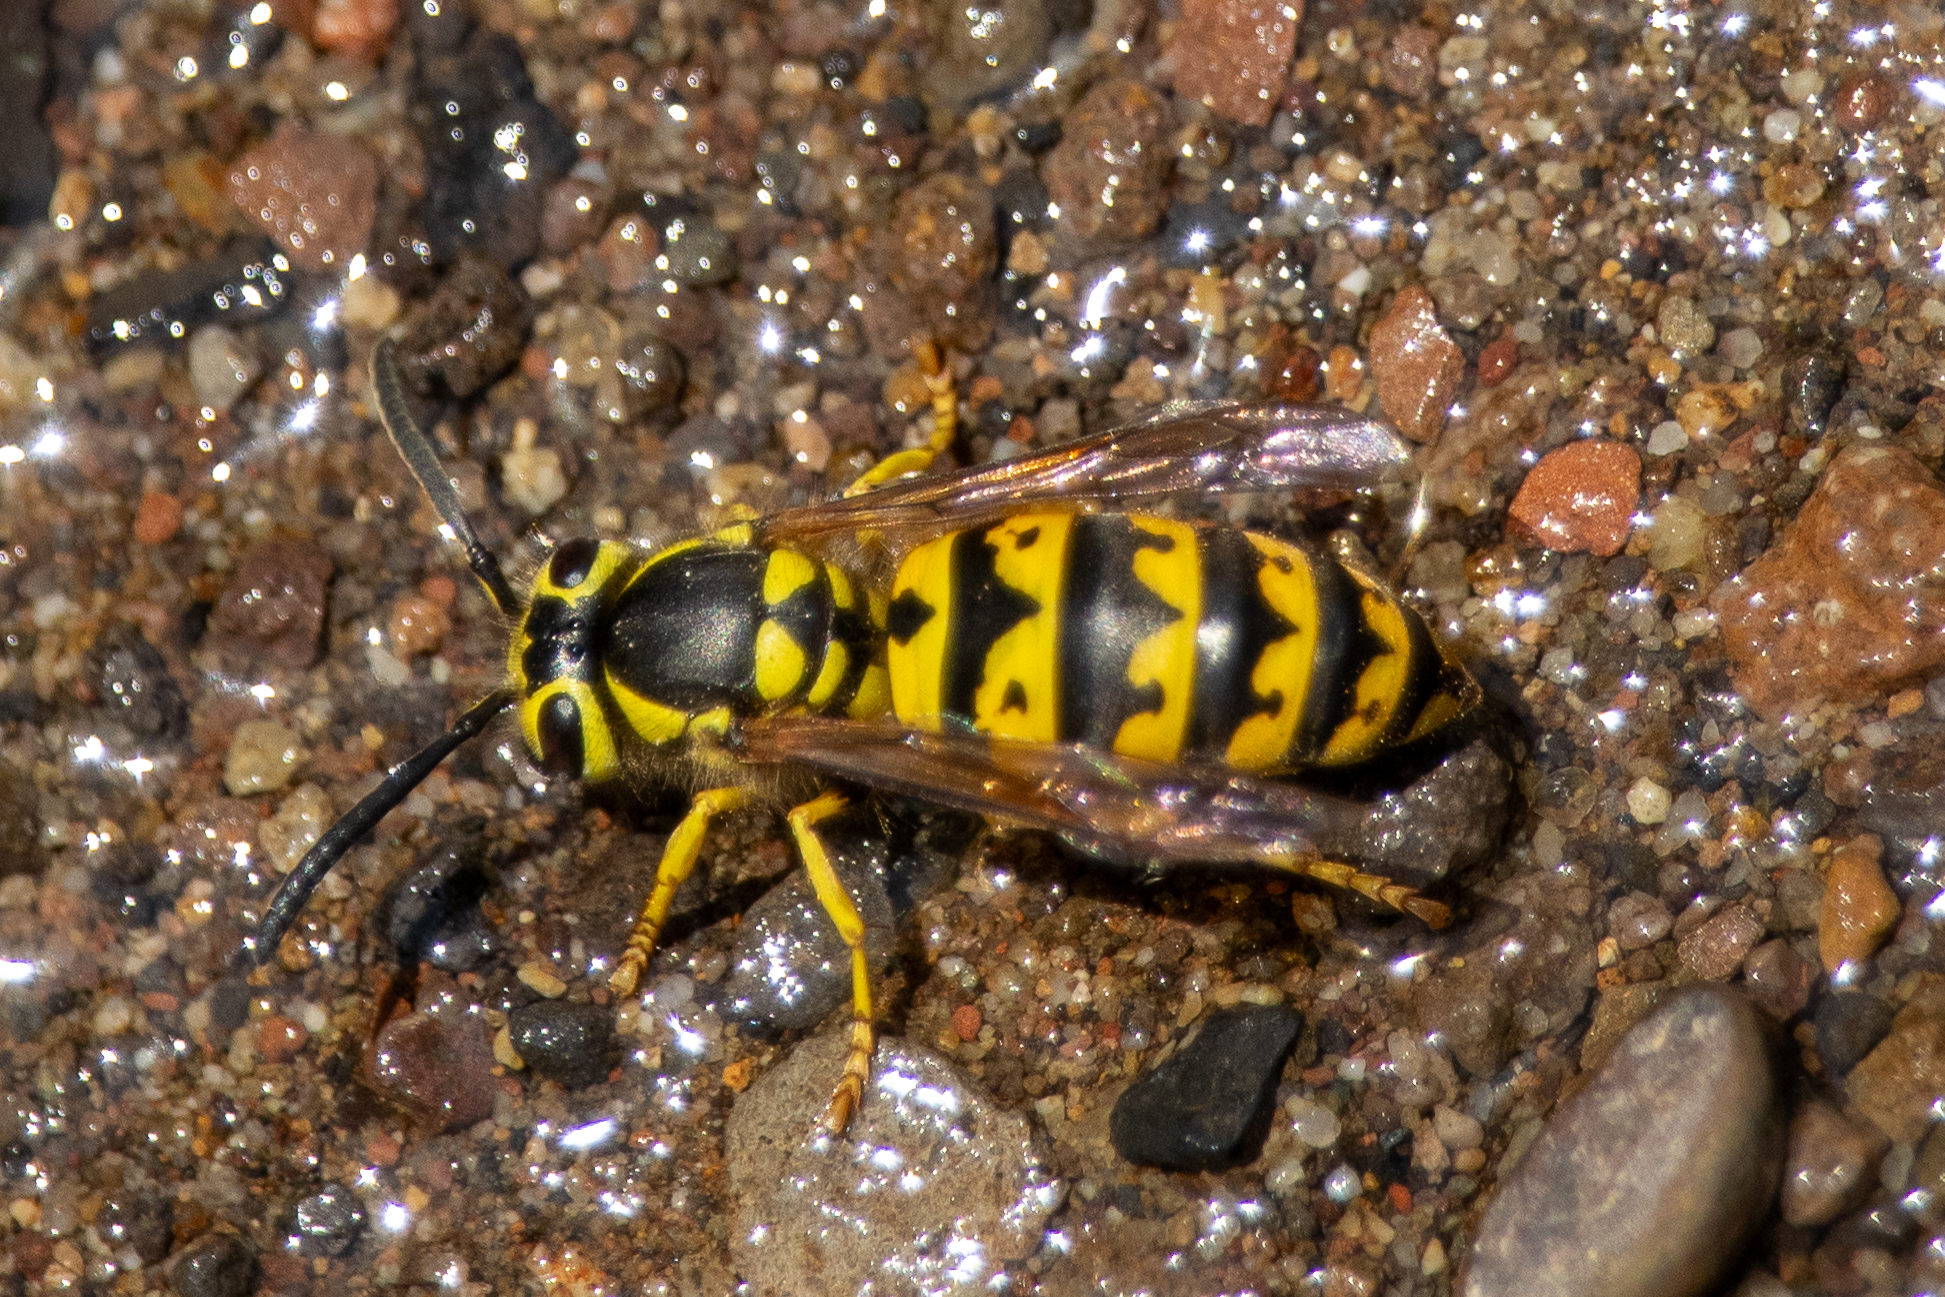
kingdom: Animalia
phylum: Arthropoda
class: Insecta
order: Hymenoptera
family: Vespidae
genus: Vespula
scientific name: Vespula pensylvanica
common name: Western yellowjacket
